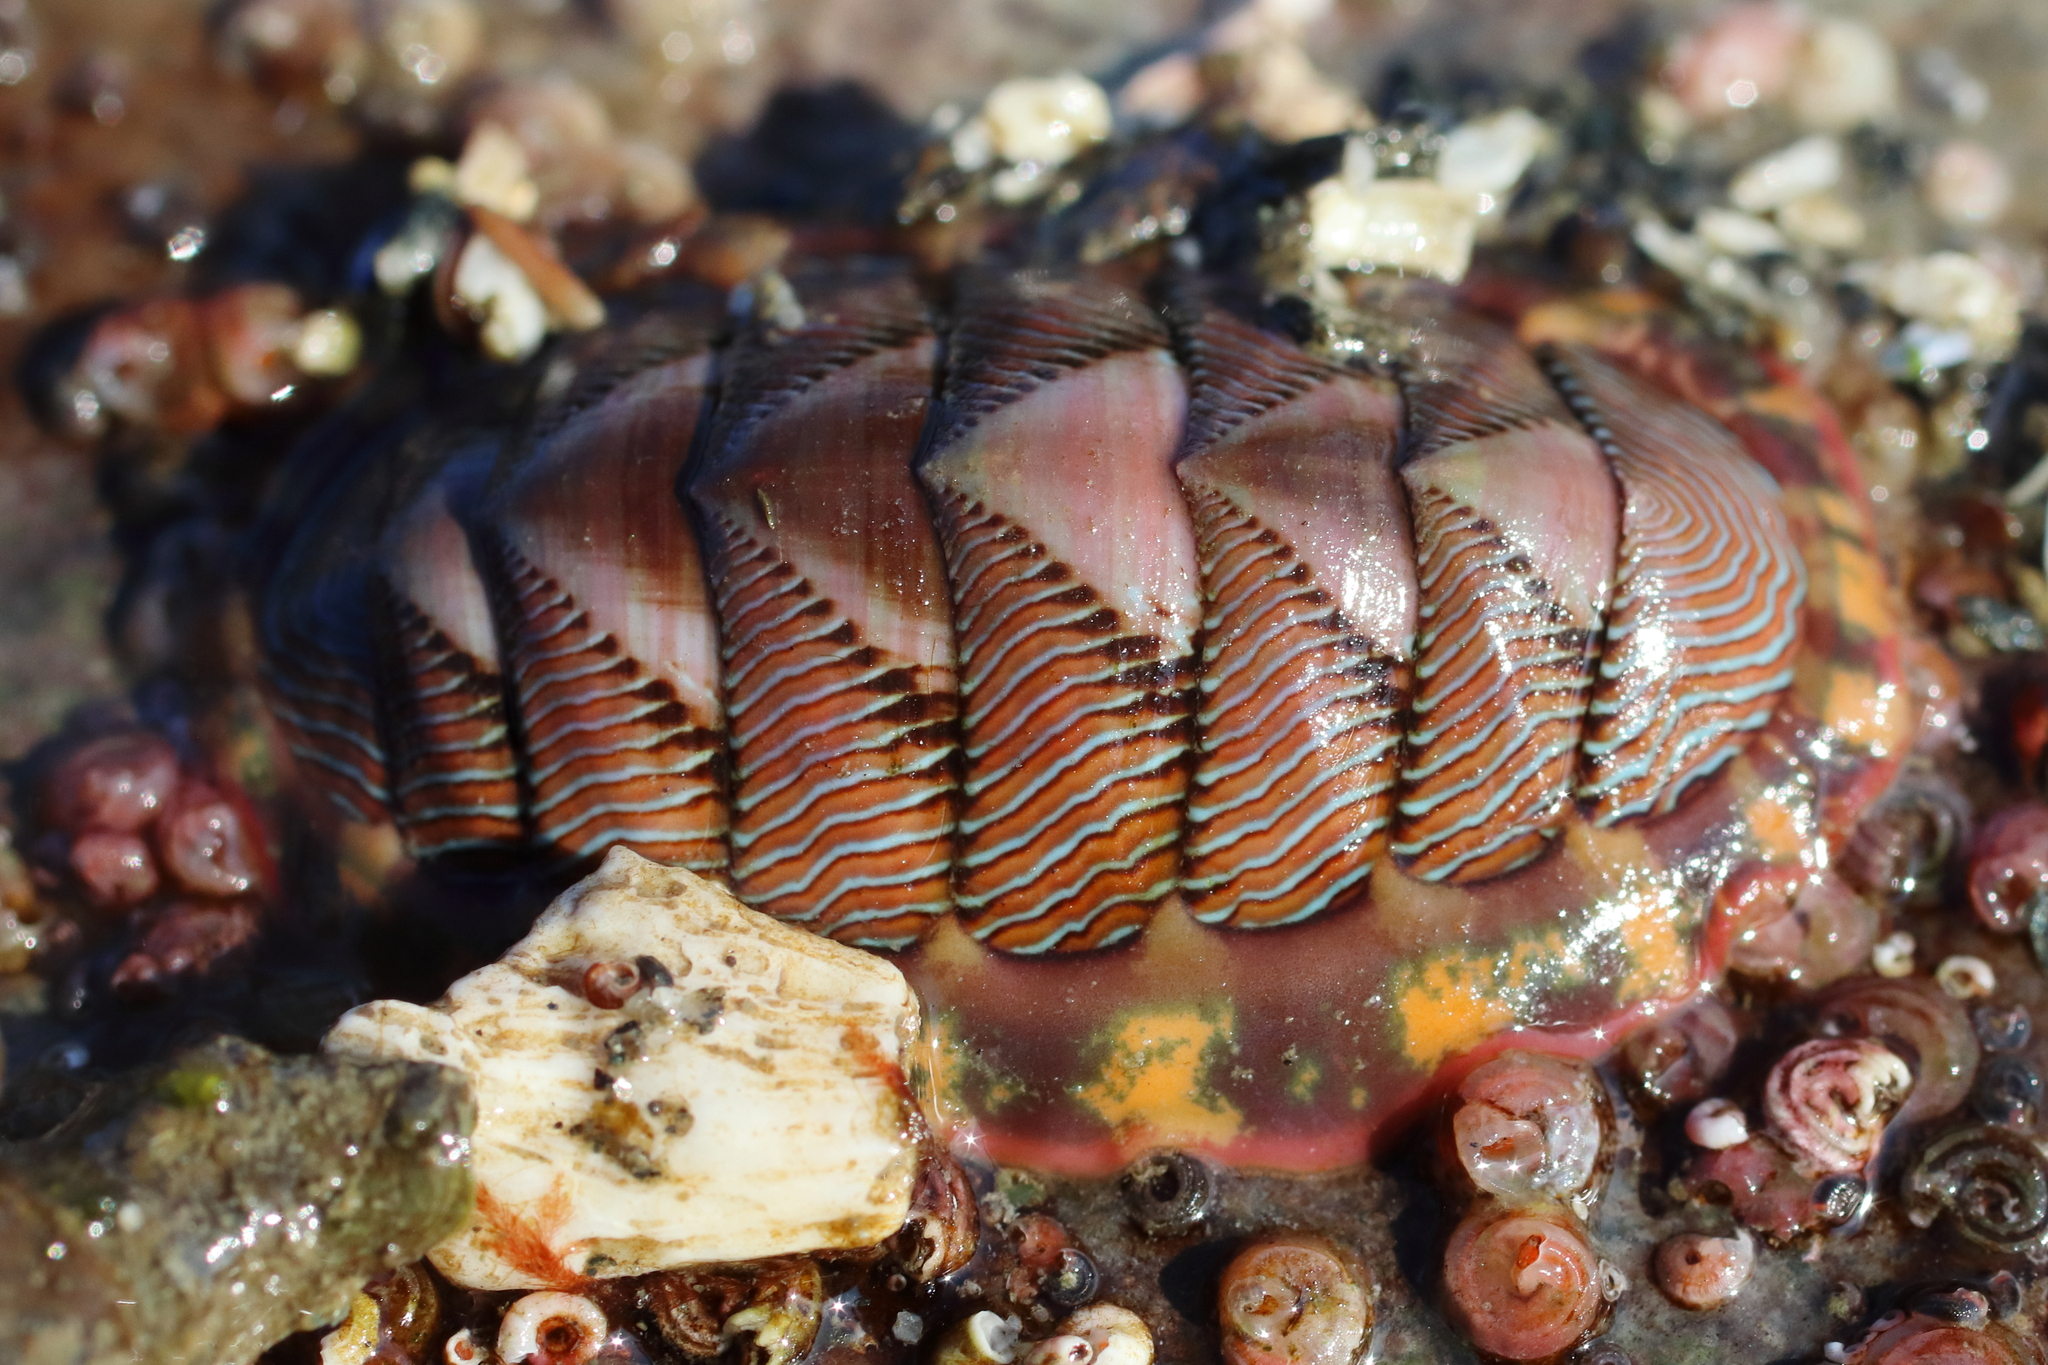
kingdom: Animalia
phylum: Mollusca
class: Polyplacophora
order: Chitonida
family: Tonicellidae
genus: Tonicella
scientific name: Tonicella lineata
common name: Lined chiton
